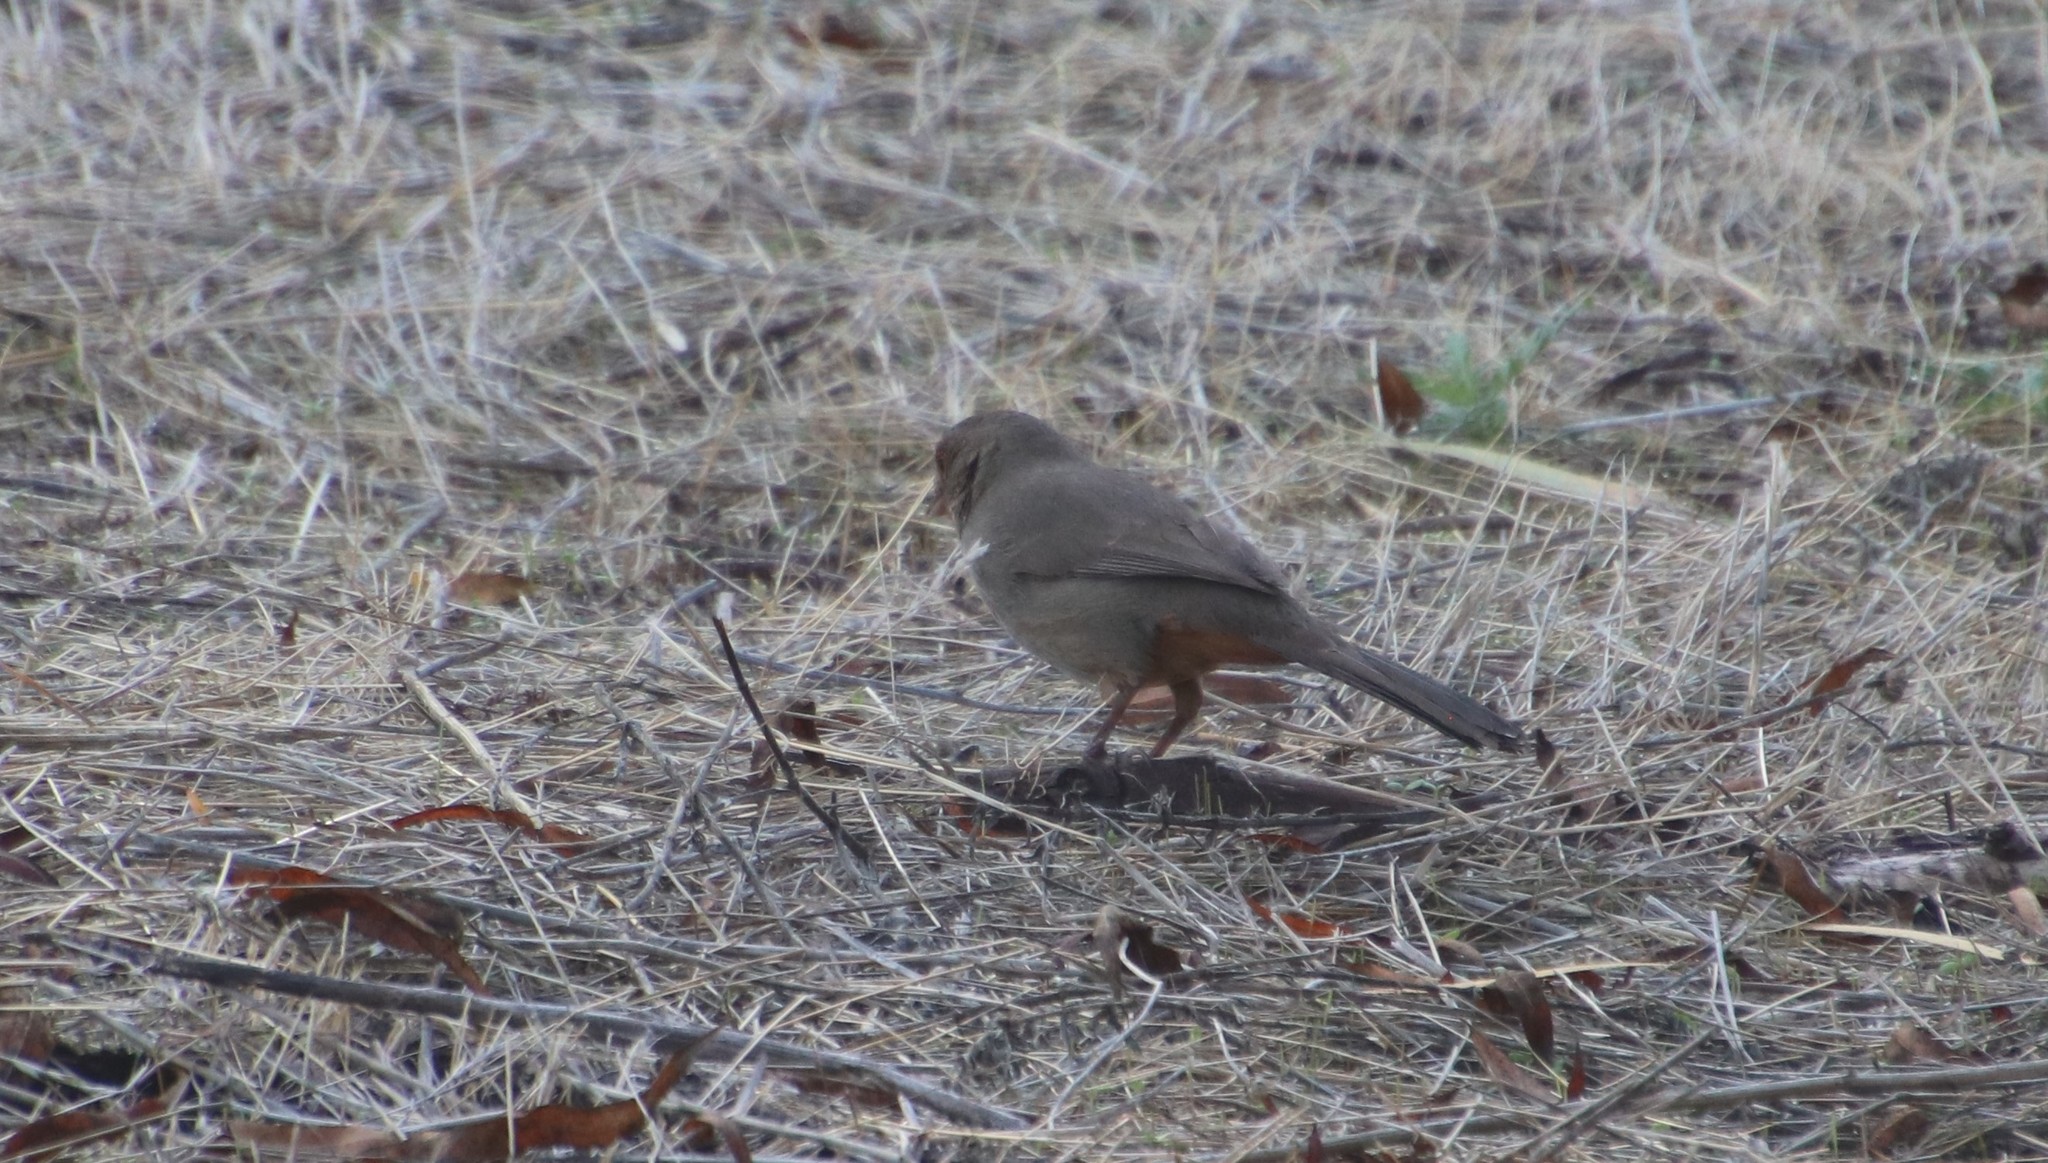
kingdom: Animalia
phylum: Chordata
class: Aves
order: Passeriformes
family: Passerellidae
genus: Melozone
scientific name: Melozone crissalis
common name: California towhee
